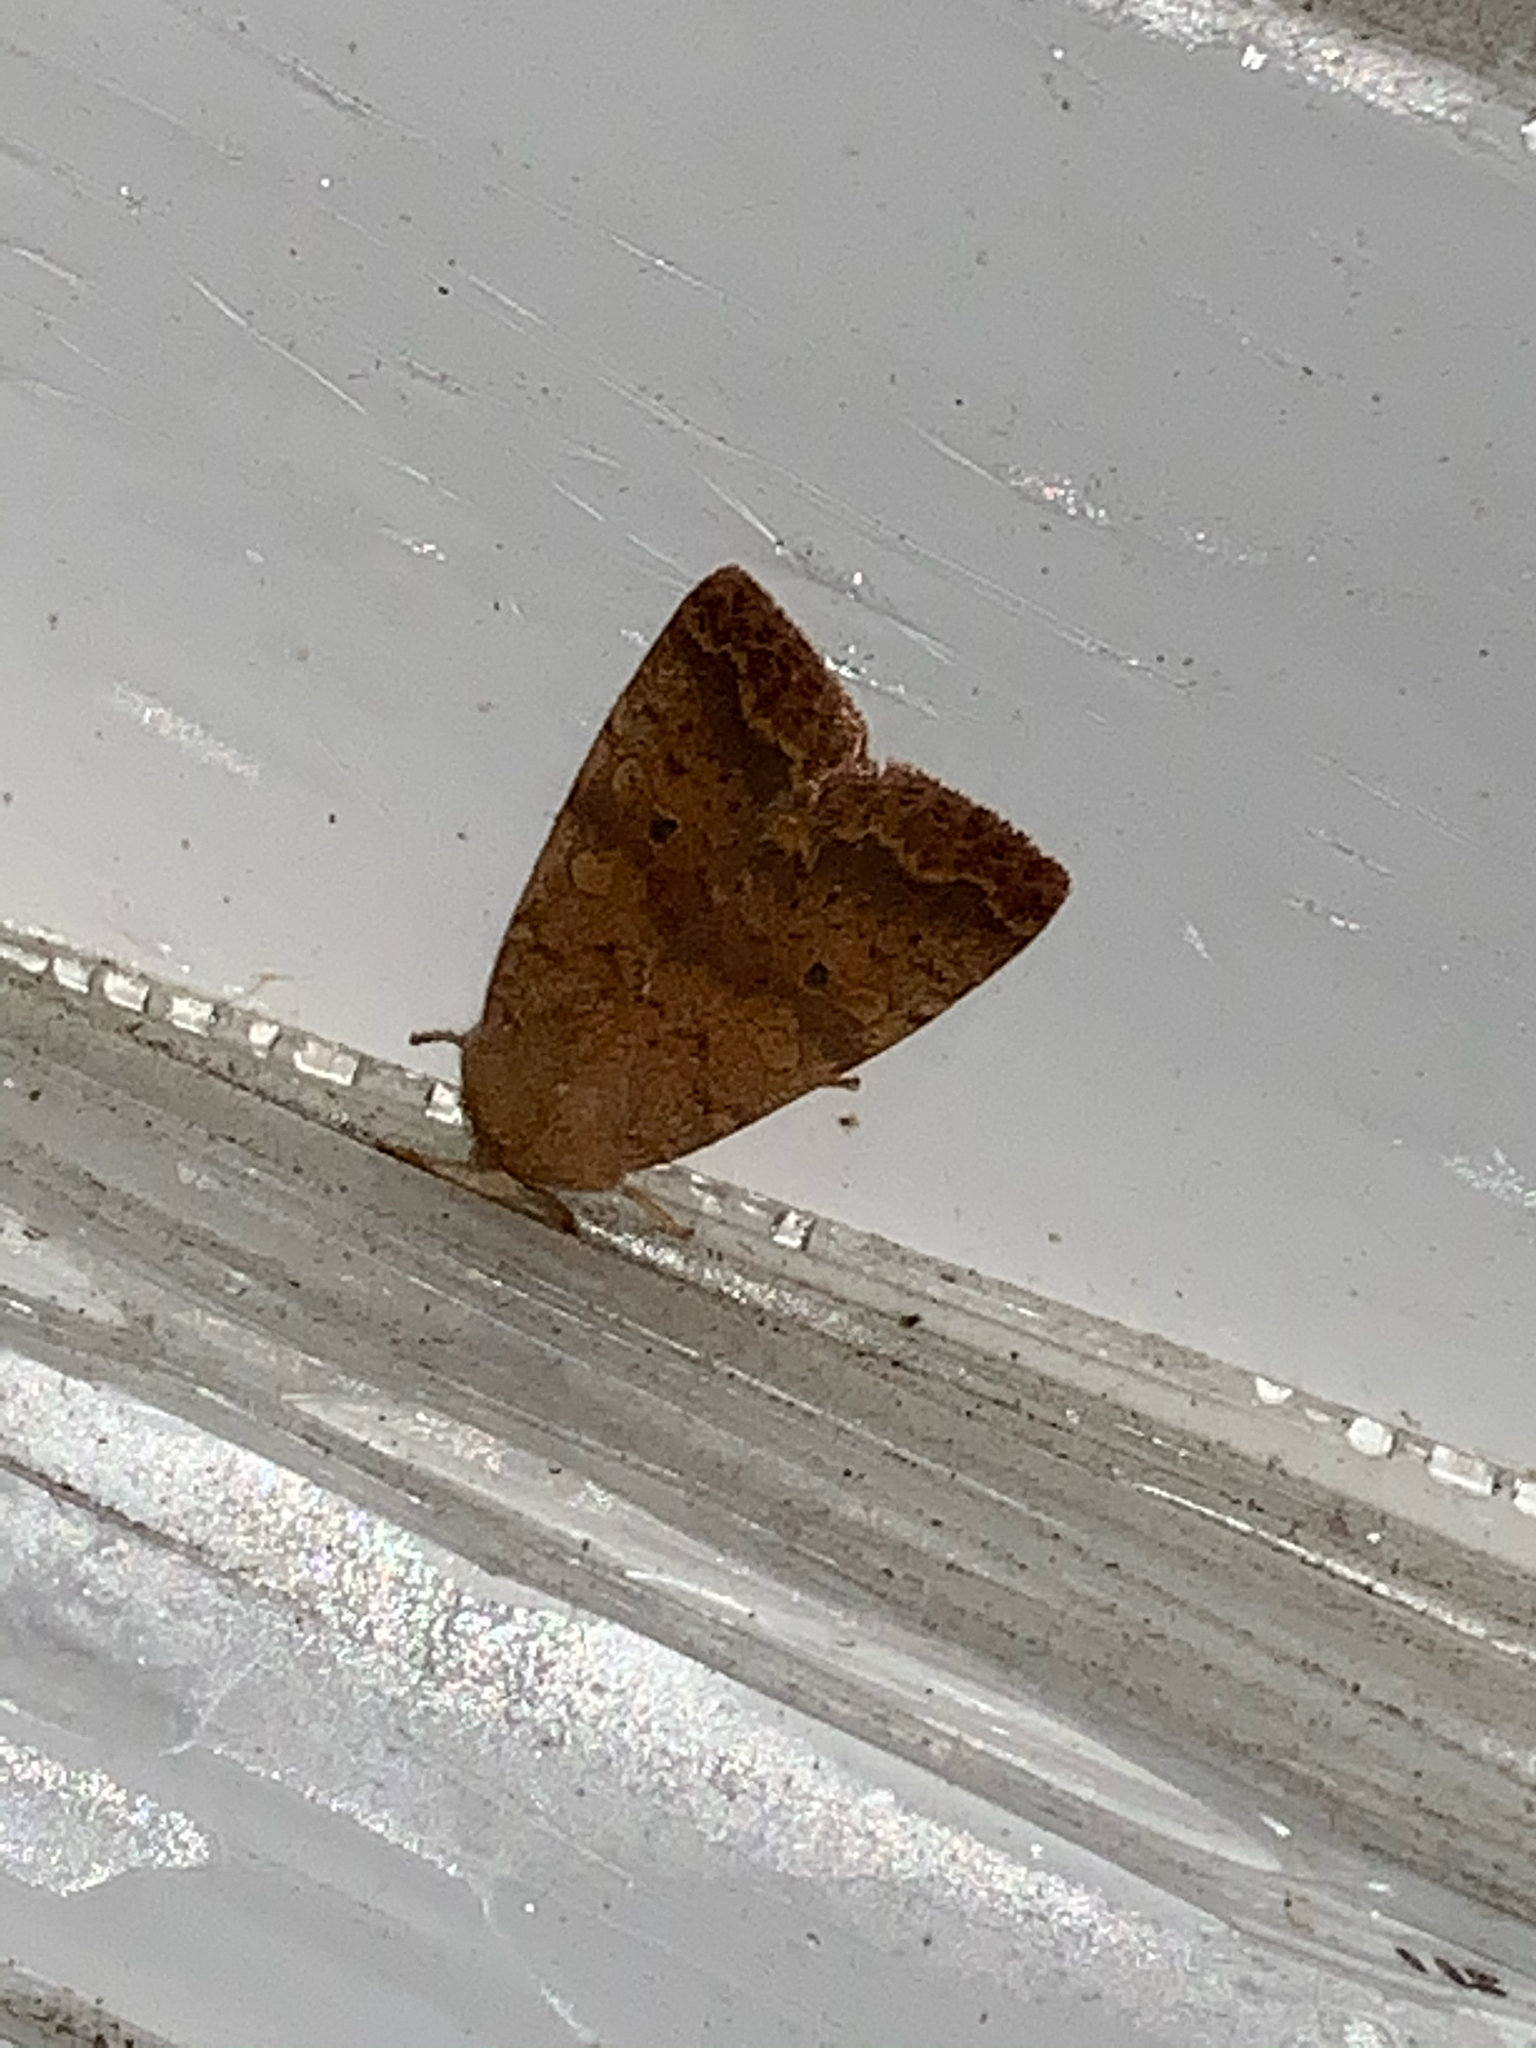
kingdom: Animalia
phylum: Arthropoda
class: Insecta
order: Lepidoptera
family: Noctuidae
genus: Agrochola
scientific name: Agrochola bicolorago
